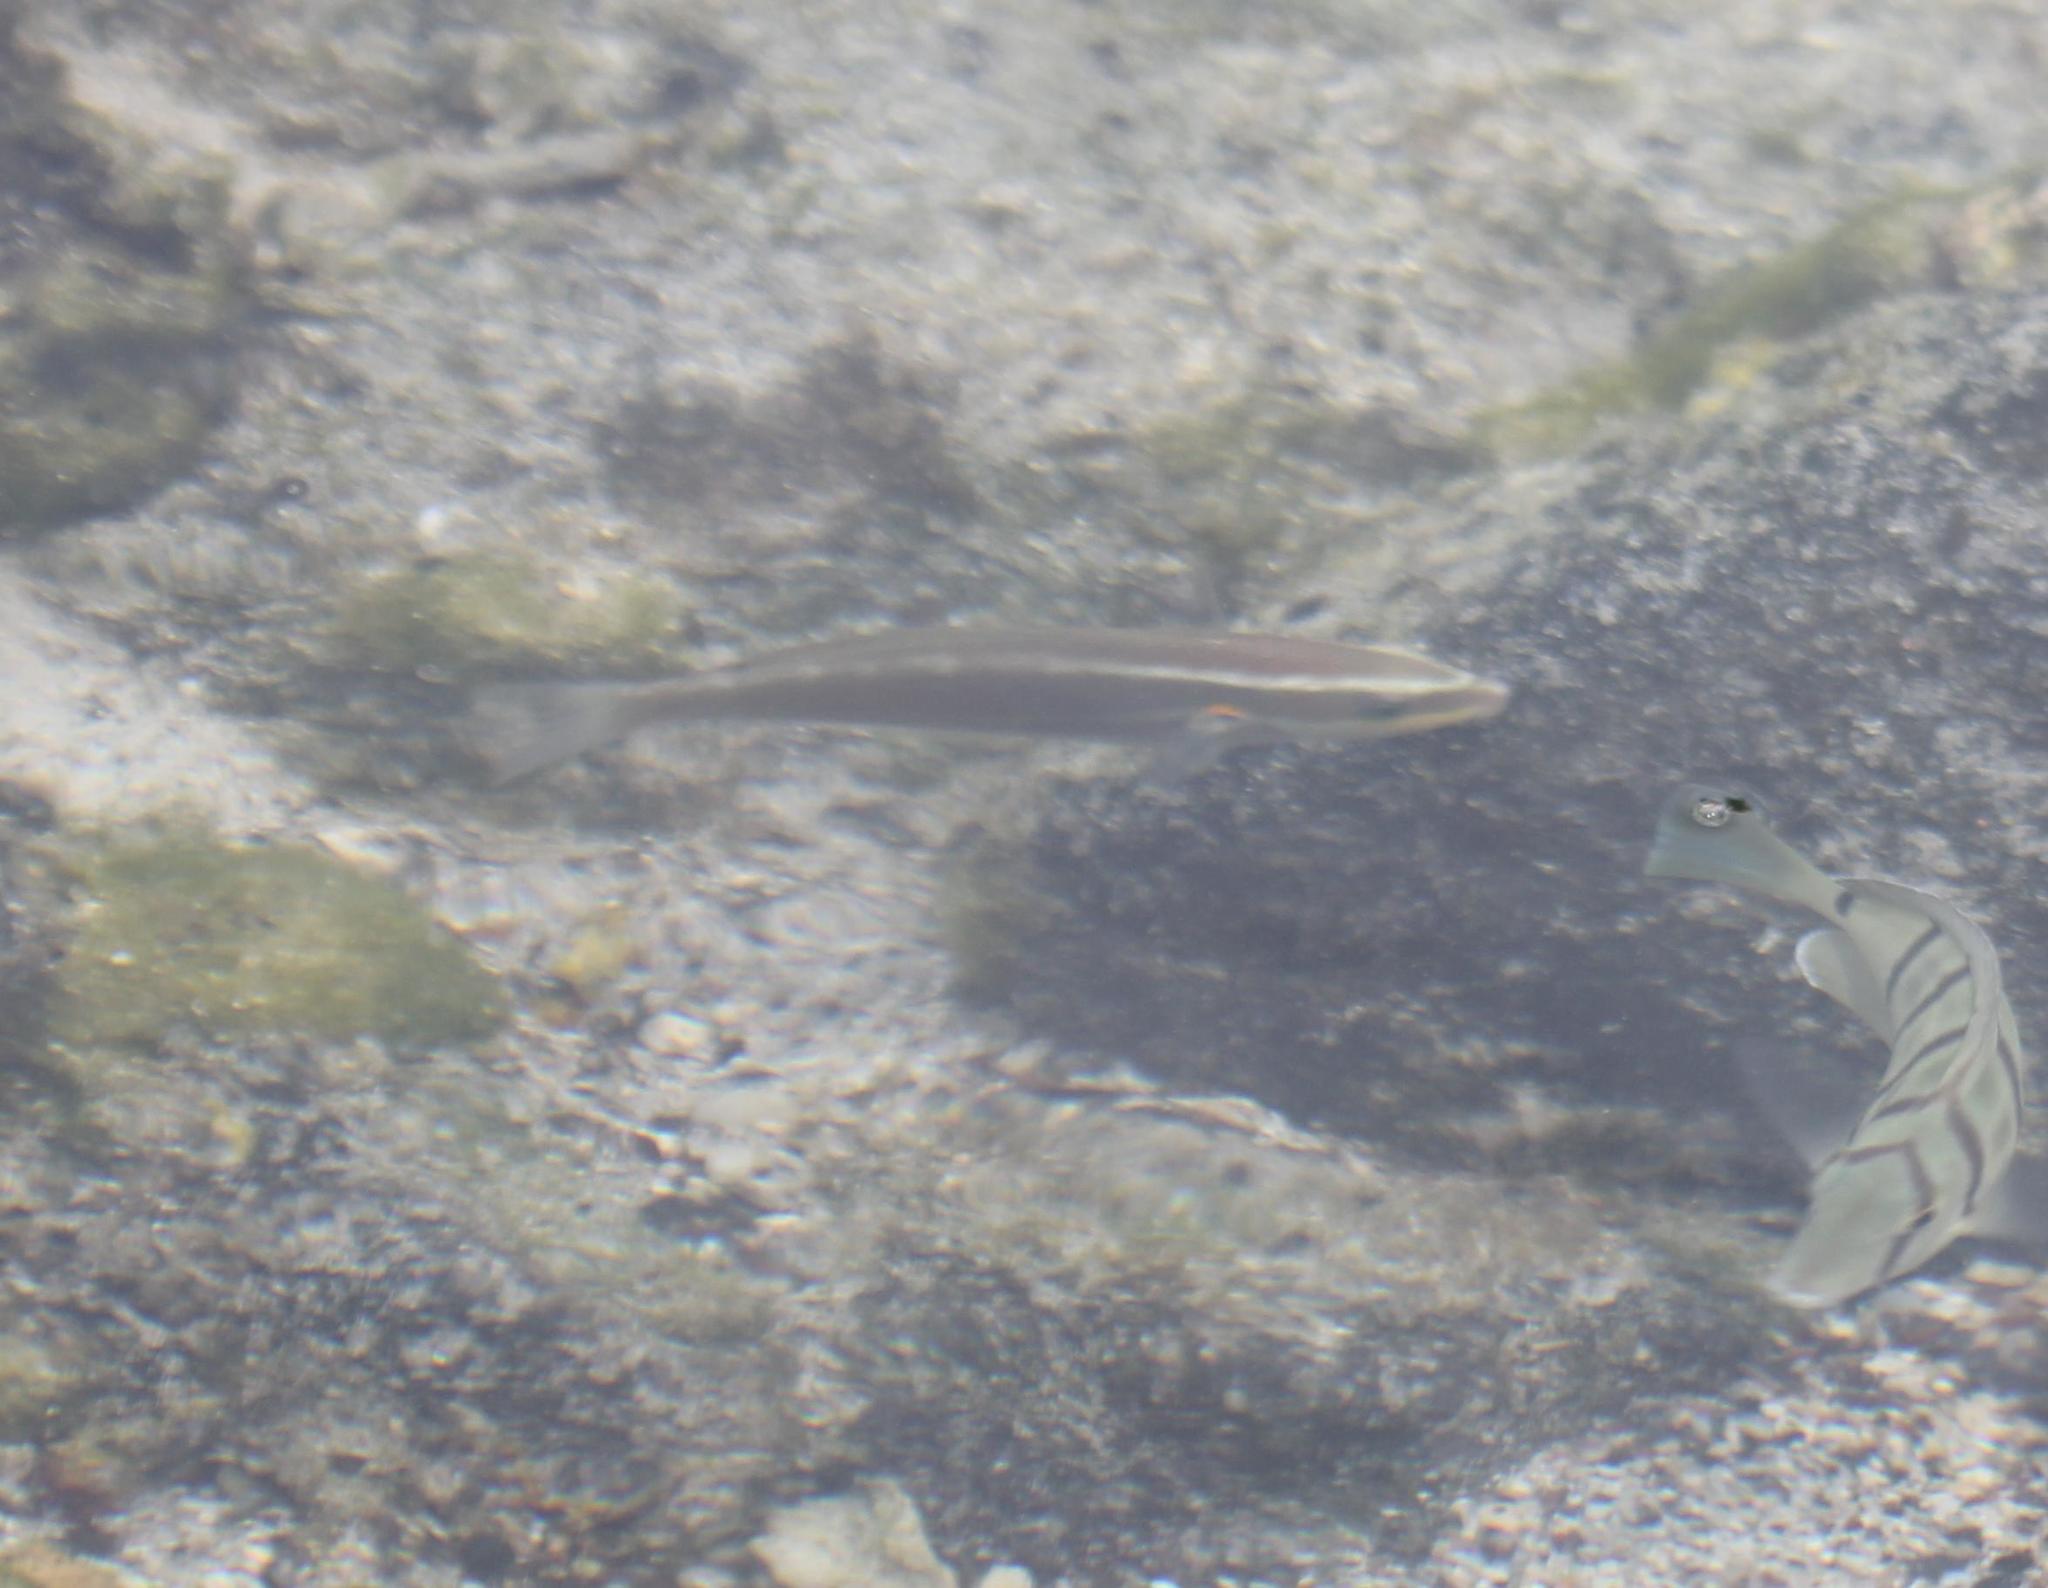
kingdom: Animalia
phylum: Chordata
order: Perciformes
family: Labridae
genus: Stethojulis
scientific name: Stethojulis balteata
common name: Belted wrasse
